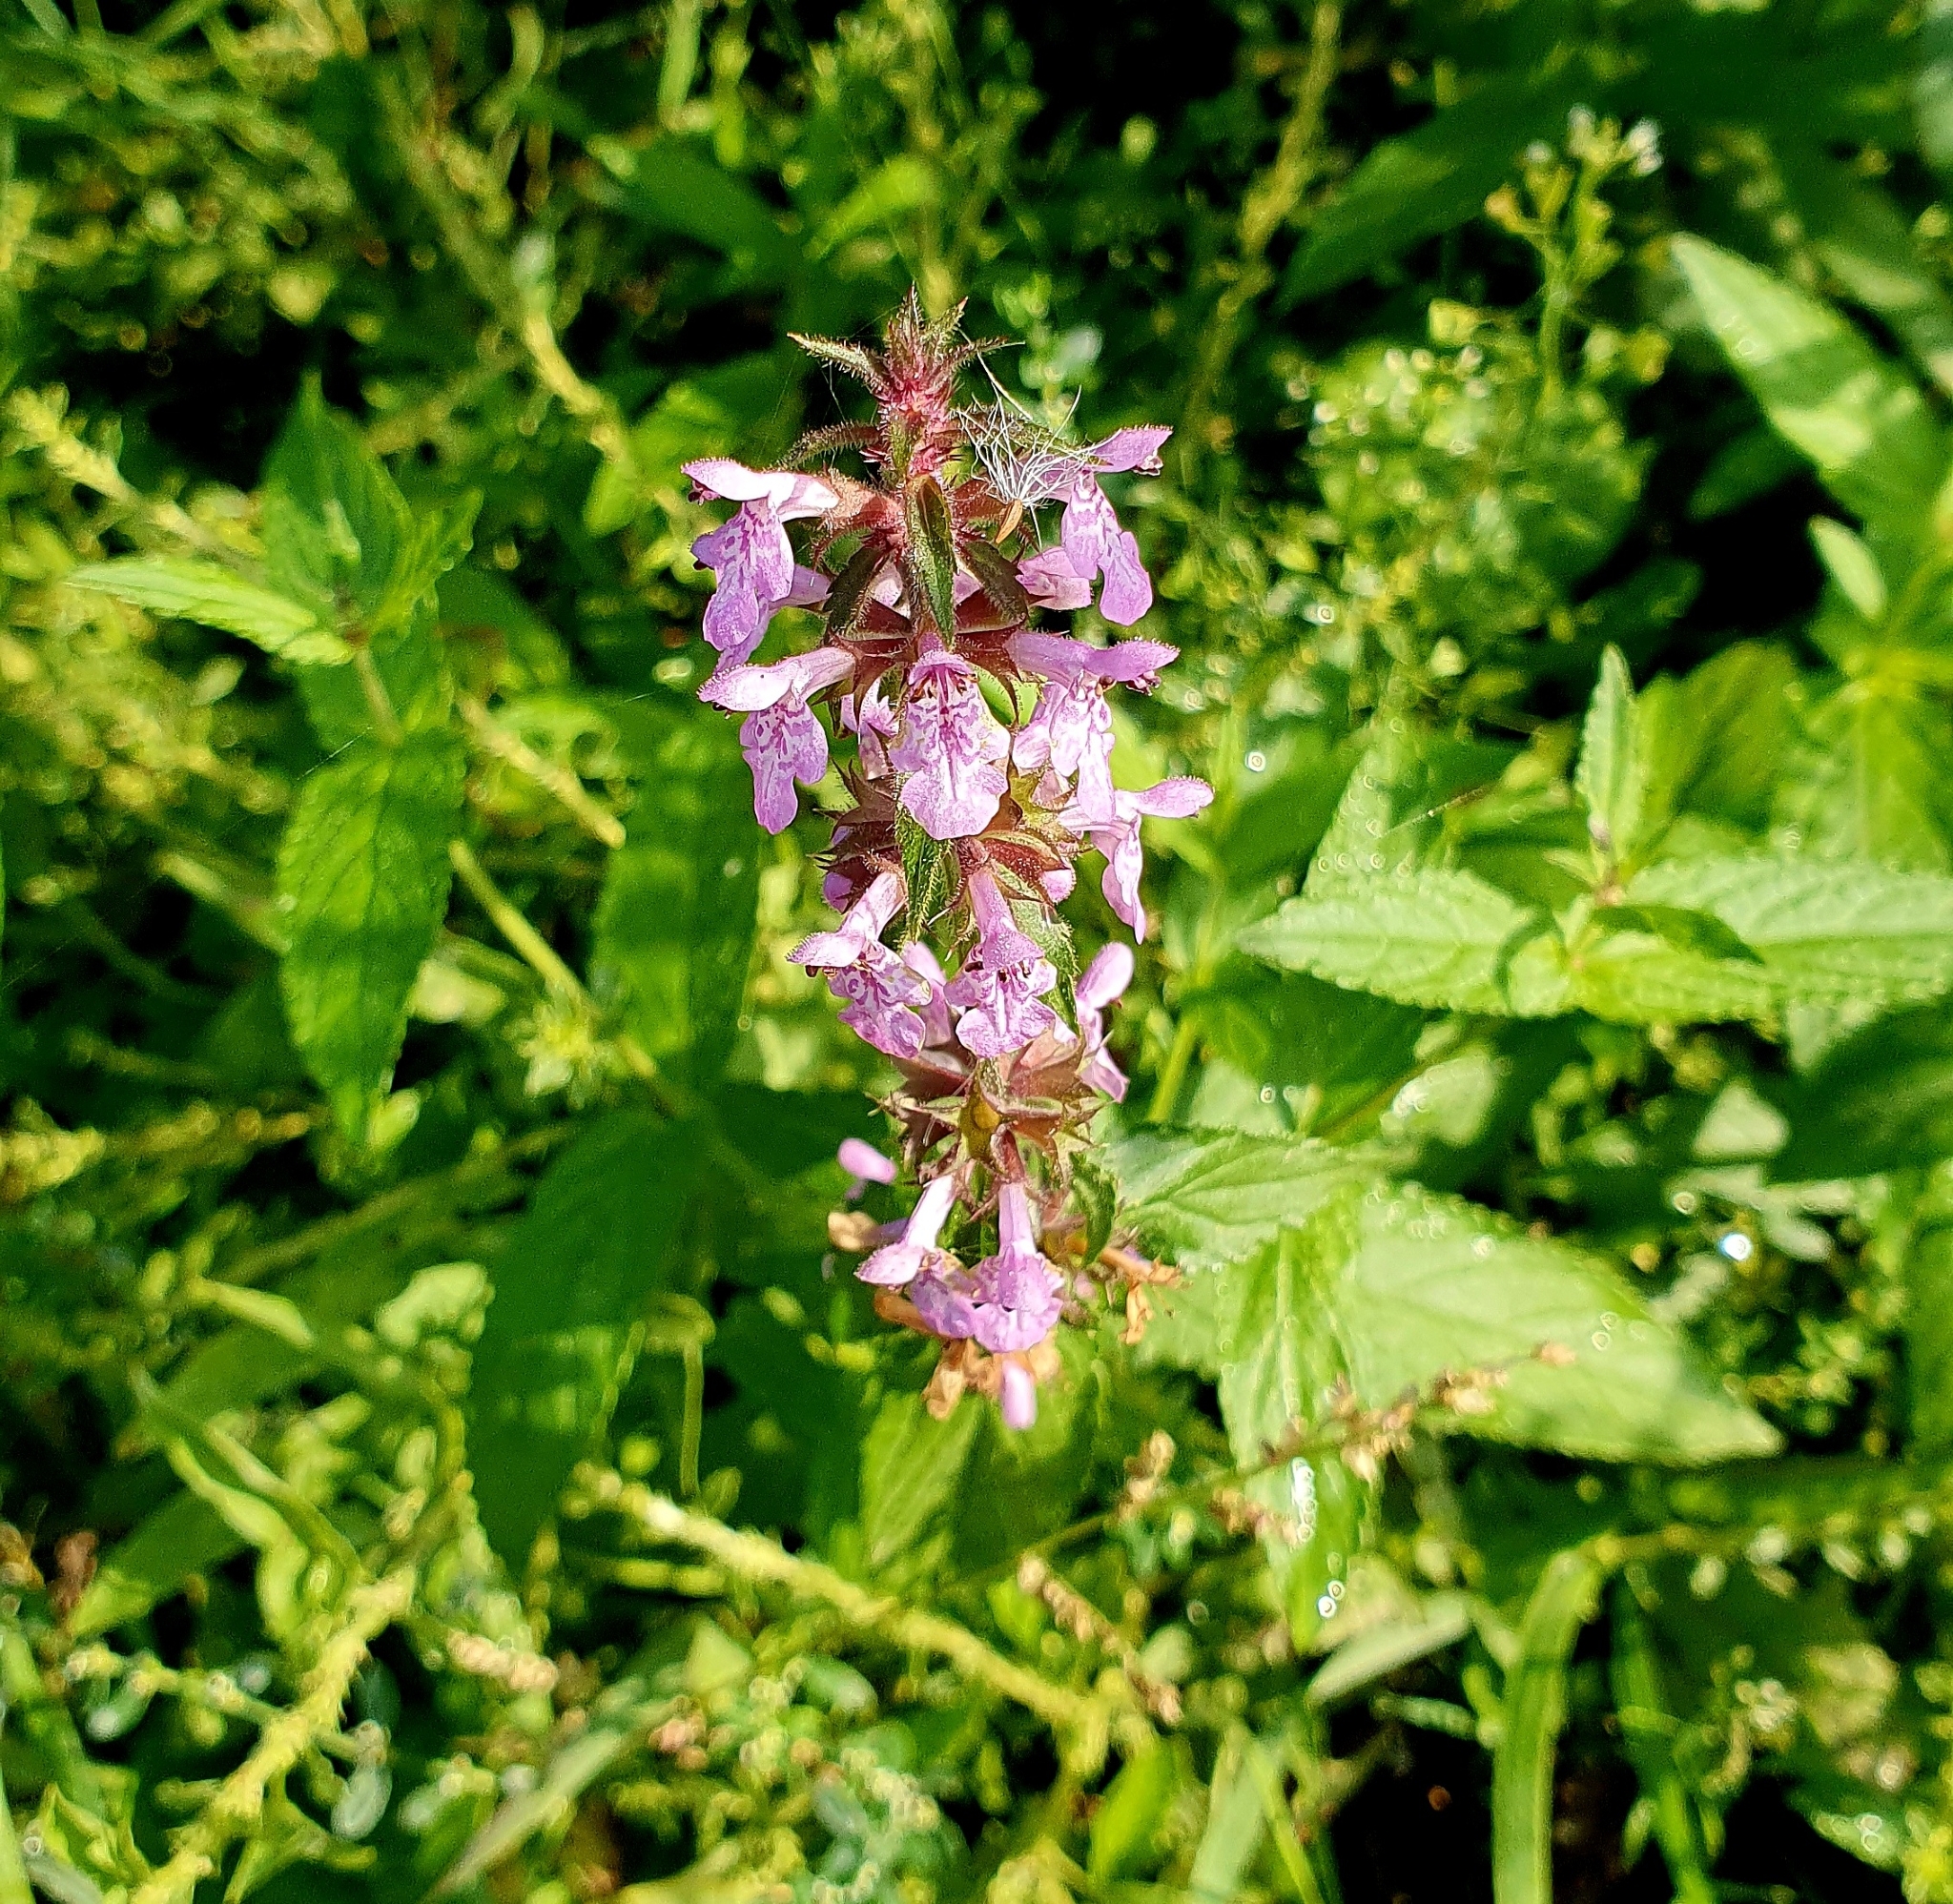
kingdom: Plantae
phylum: Tracheophyta
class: Magnoliopsida
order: Lamiales
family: Lamiaceae
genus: Stachys
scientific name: Stachys palustris
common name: Marsh woundwort
